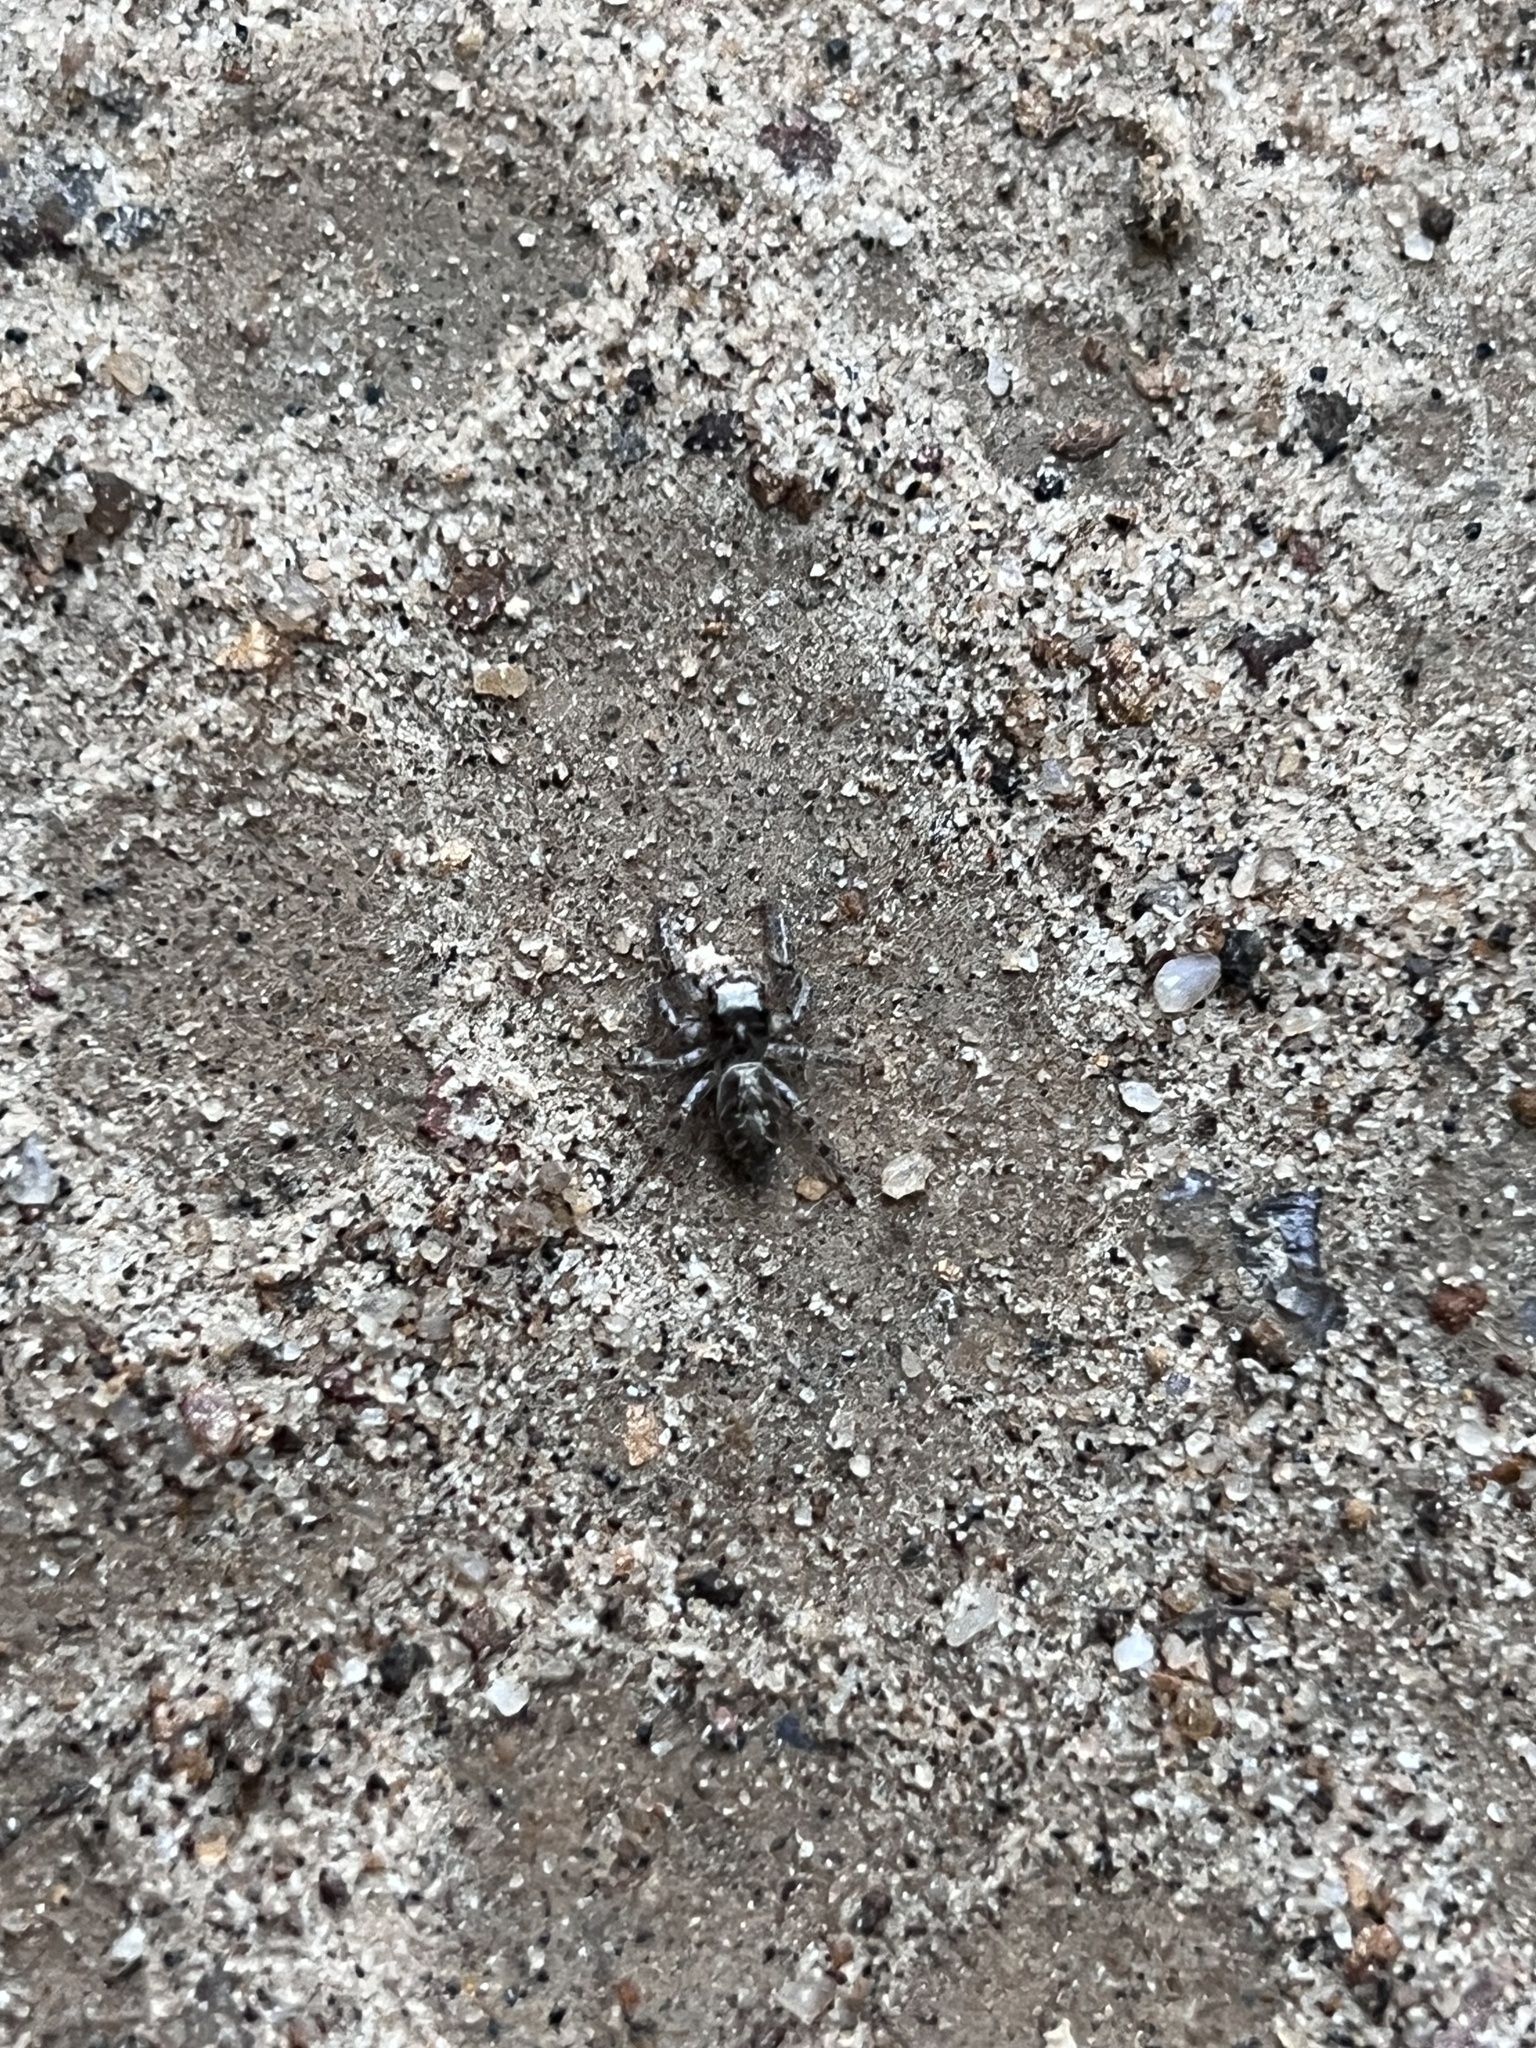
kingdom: Animalia
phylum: Arthropoda
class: Arachnida
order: Araneae
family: Salticidae
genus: Eris
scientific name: Eris militaris
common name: Bronze jumper
